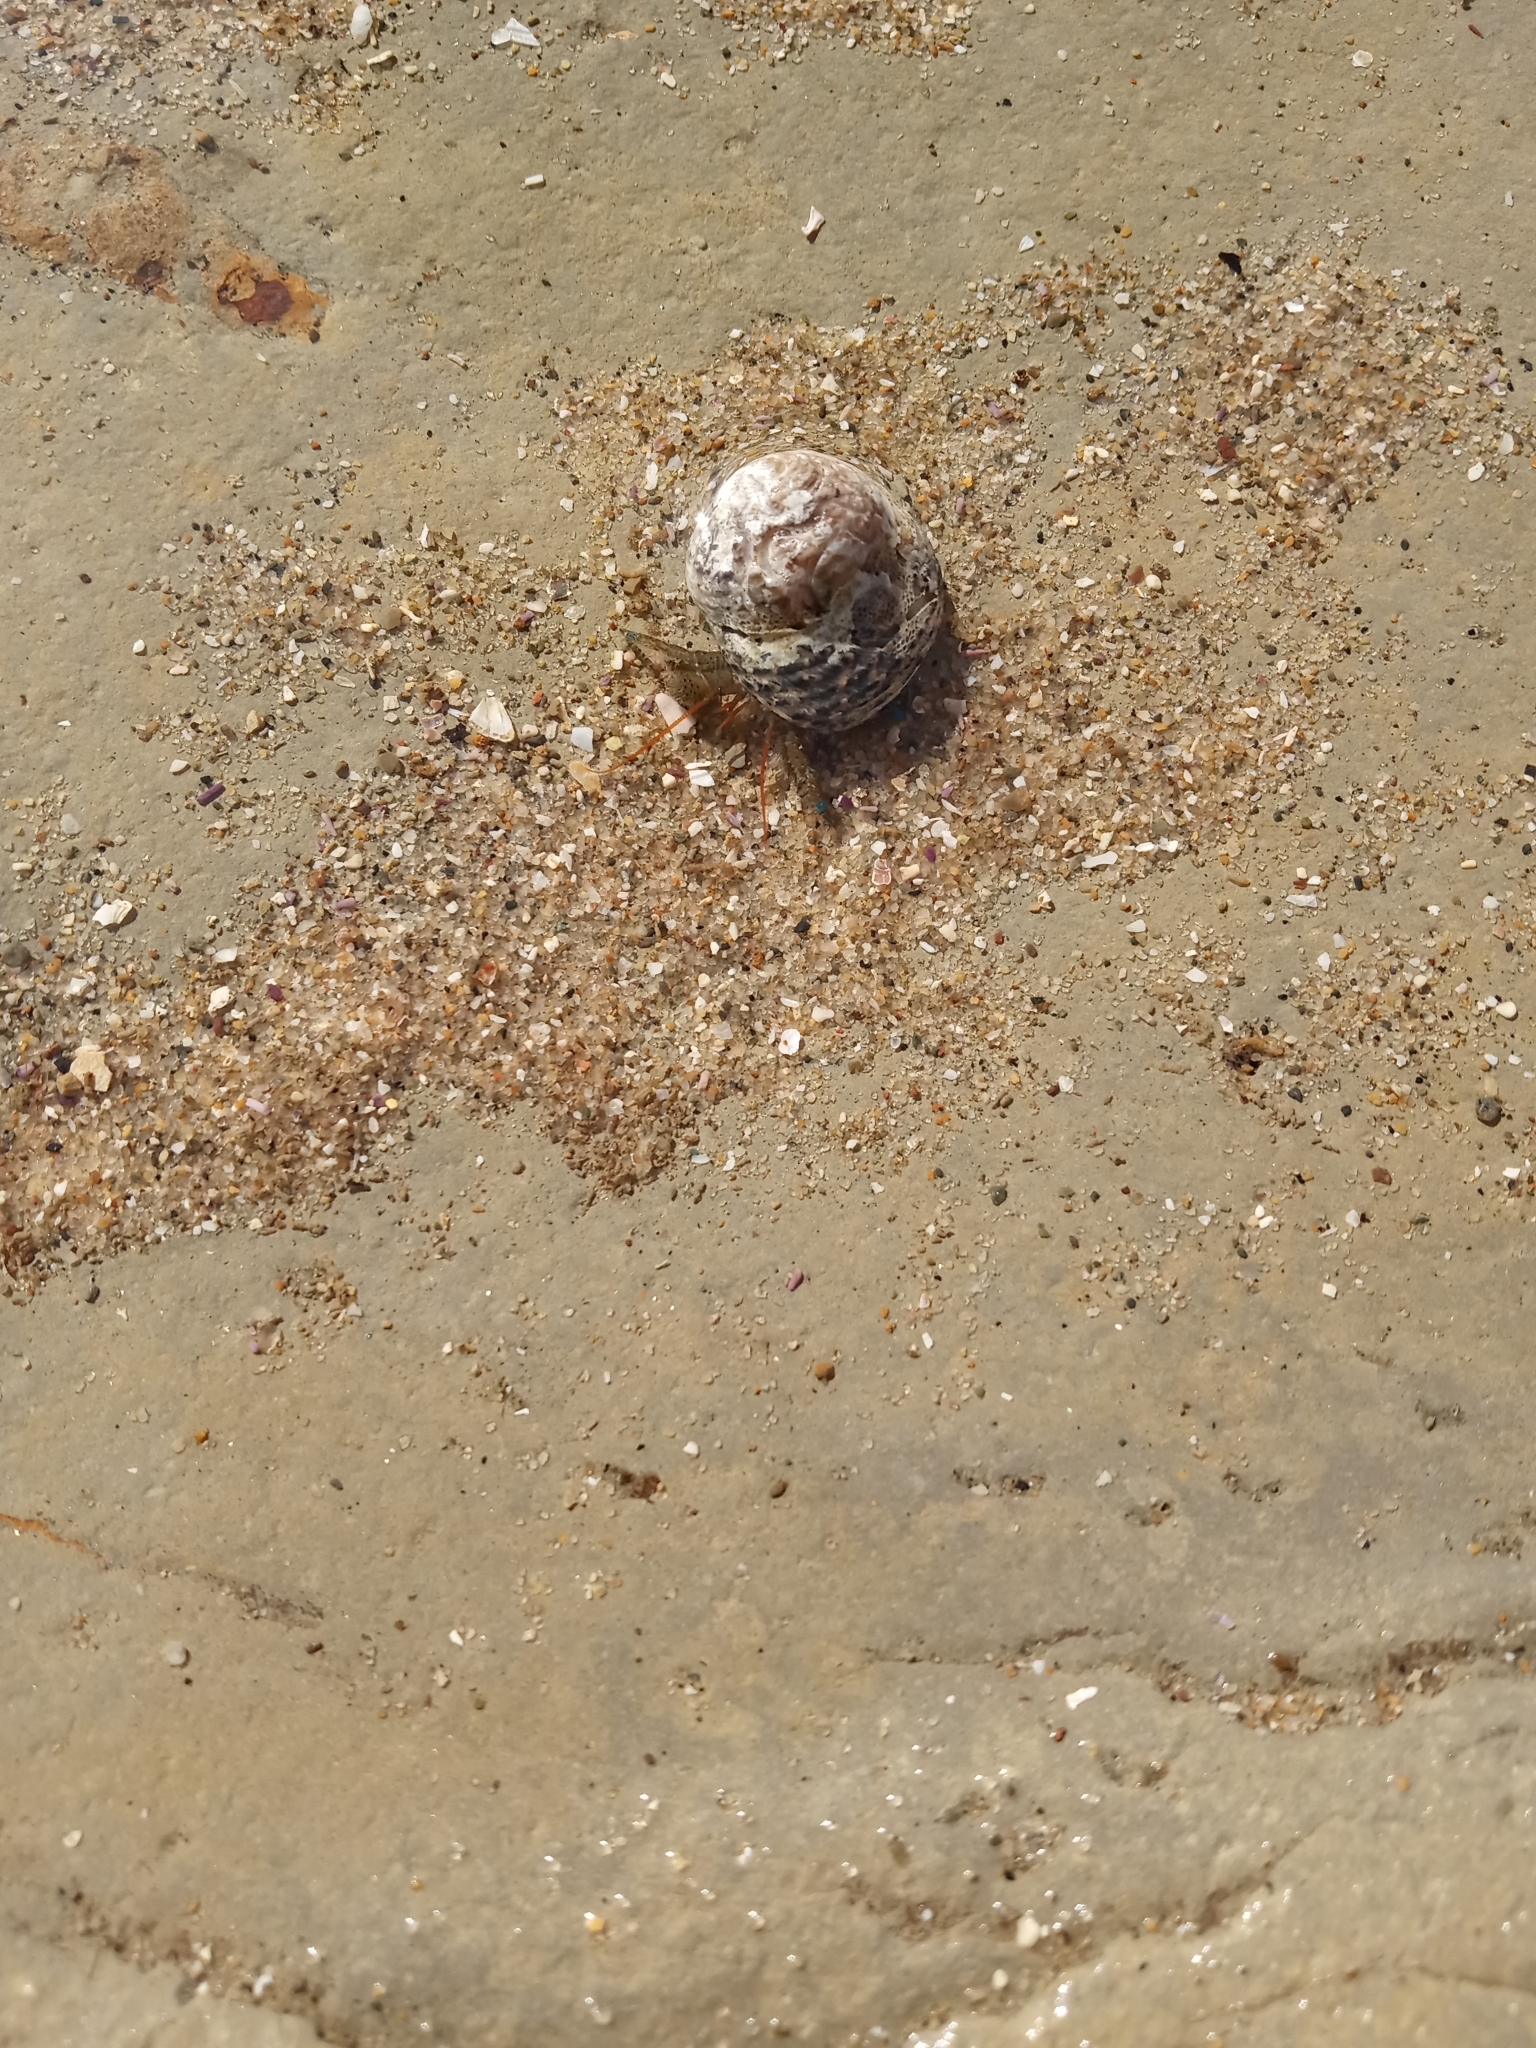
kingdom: Animalia
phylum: Mollusca
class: Gastropoda
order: Trochida
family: Tegulidae
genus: Tegula
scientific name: Tegula eiseni
